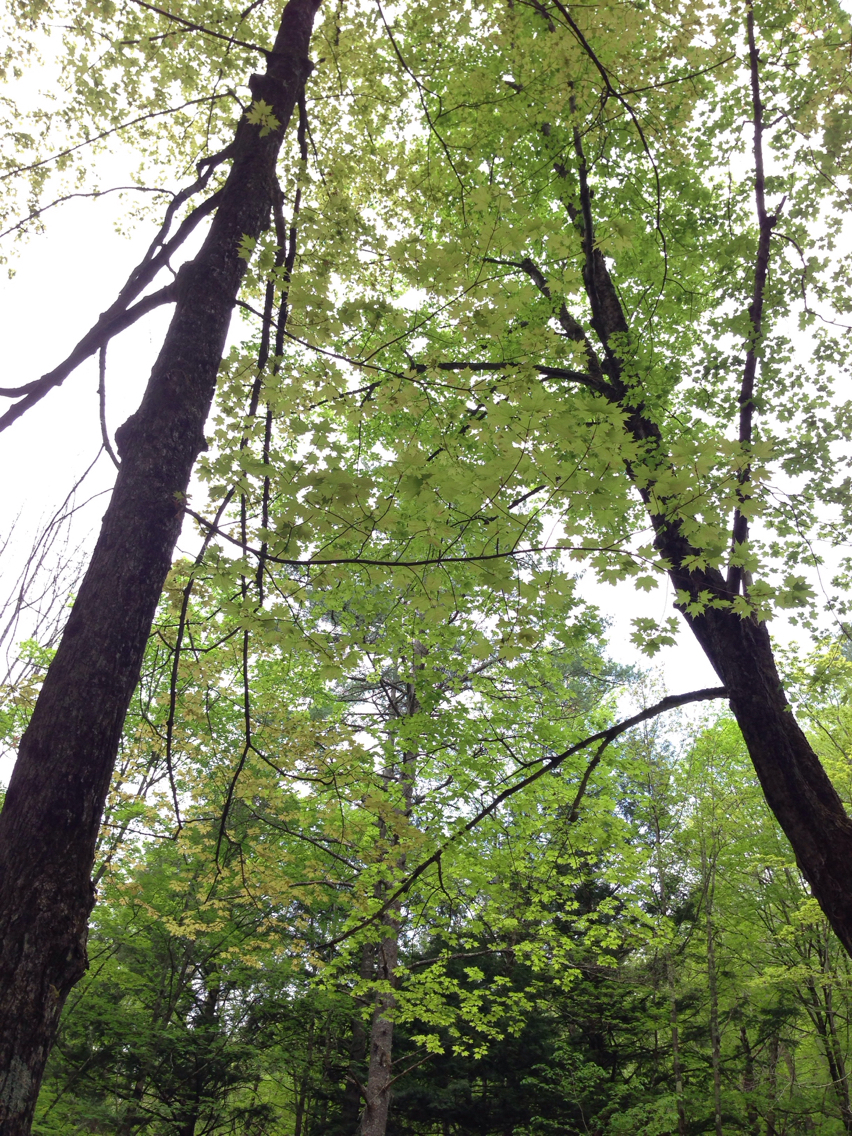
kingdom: Plantae
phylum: Tracheophyta
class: Magnoliopsida
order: Sapindales
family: Sapindaceae
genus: Acer
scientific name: Acer saccharum
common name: Sugar maple
